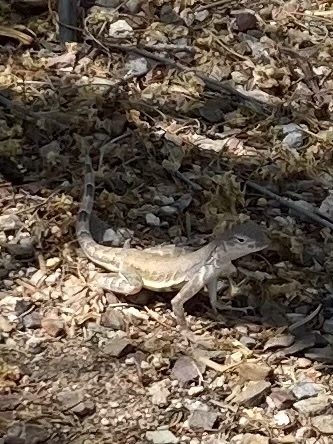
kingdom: Animalia
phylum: Chordata
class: Squamata
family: Phrynosomatidae
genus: Callisaurus
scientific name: Callisaurus draconoides
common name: Zebra-tailed lizard
